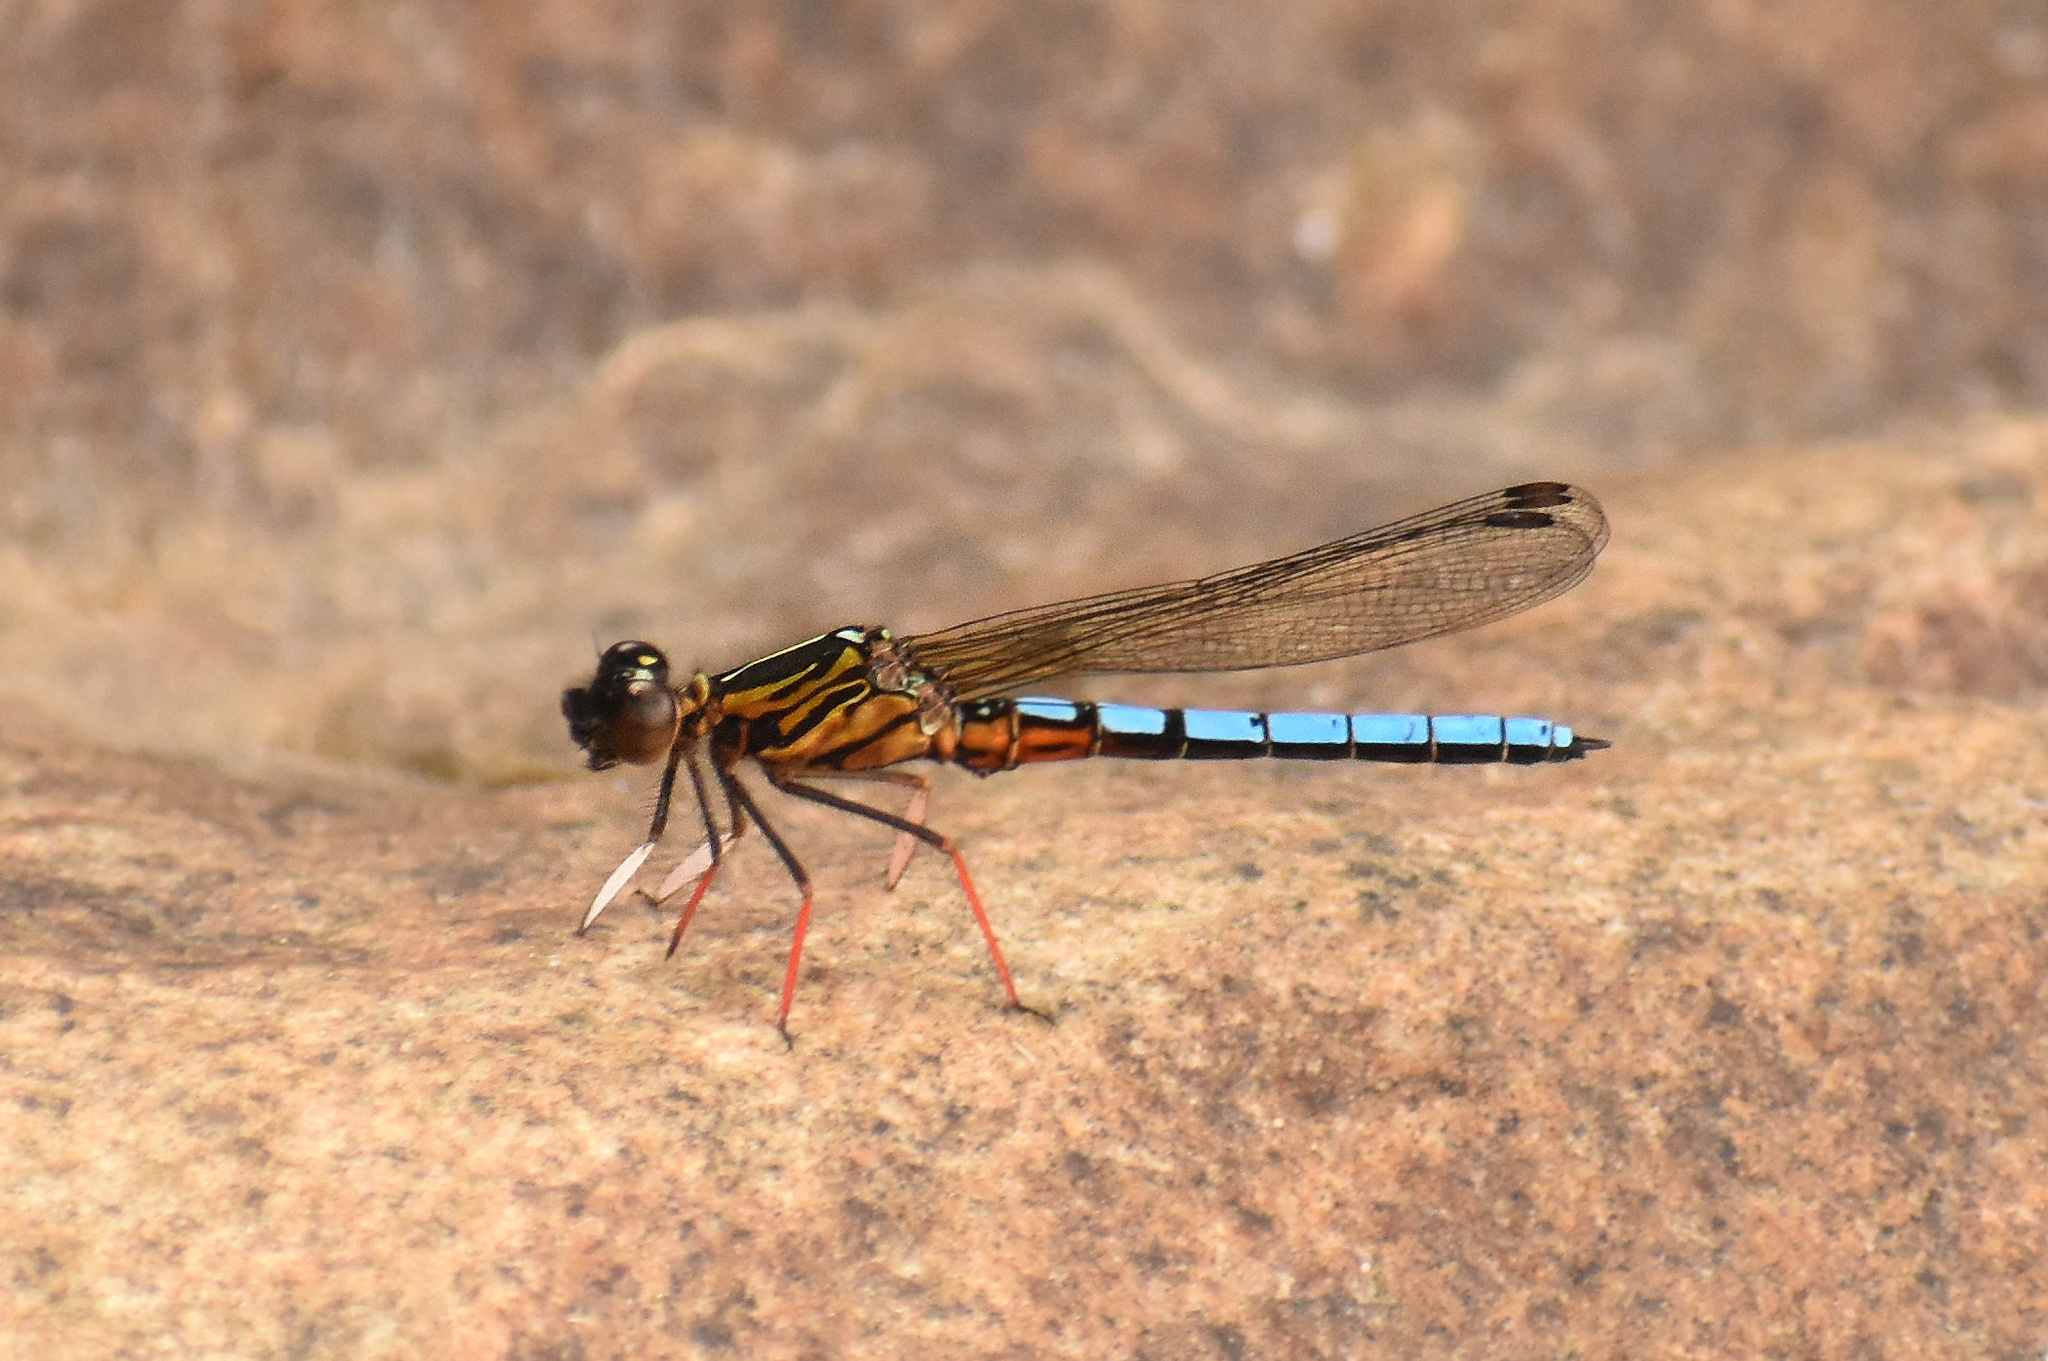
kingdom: Animalia
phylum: Arthropoda
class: Insecta
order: Odonata
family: Chlorocyphidae
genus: Platycypha
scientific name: Platycypha caligata
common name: Dancing jewel
